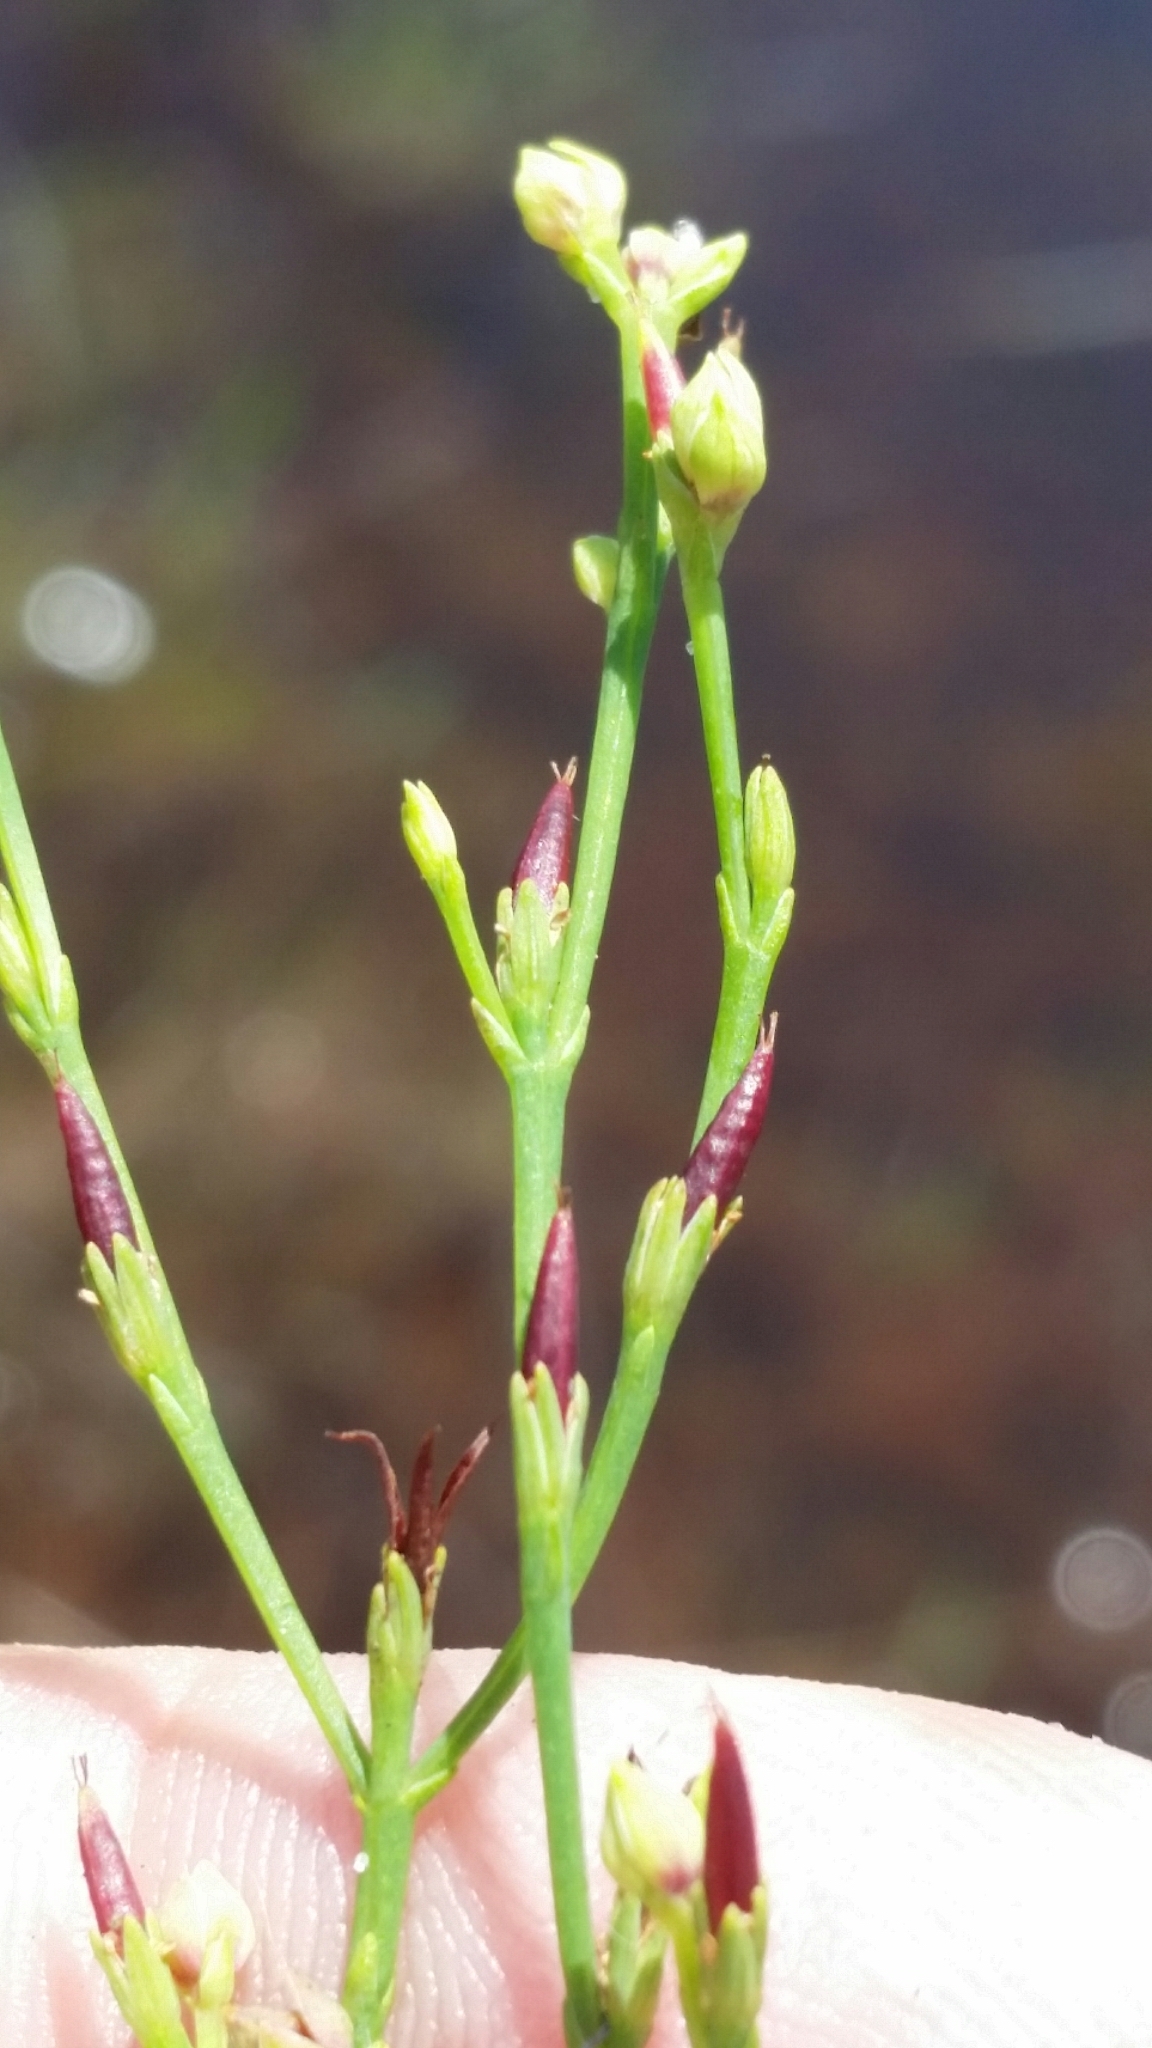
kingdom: Plantae
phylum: Tracheophyta
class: Magnoliopsida
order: Malpighiales
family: Hypericaceae
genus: Hypericum
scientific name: Hypericum gentianoides
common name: Gentian-leaved st. john's-wort
